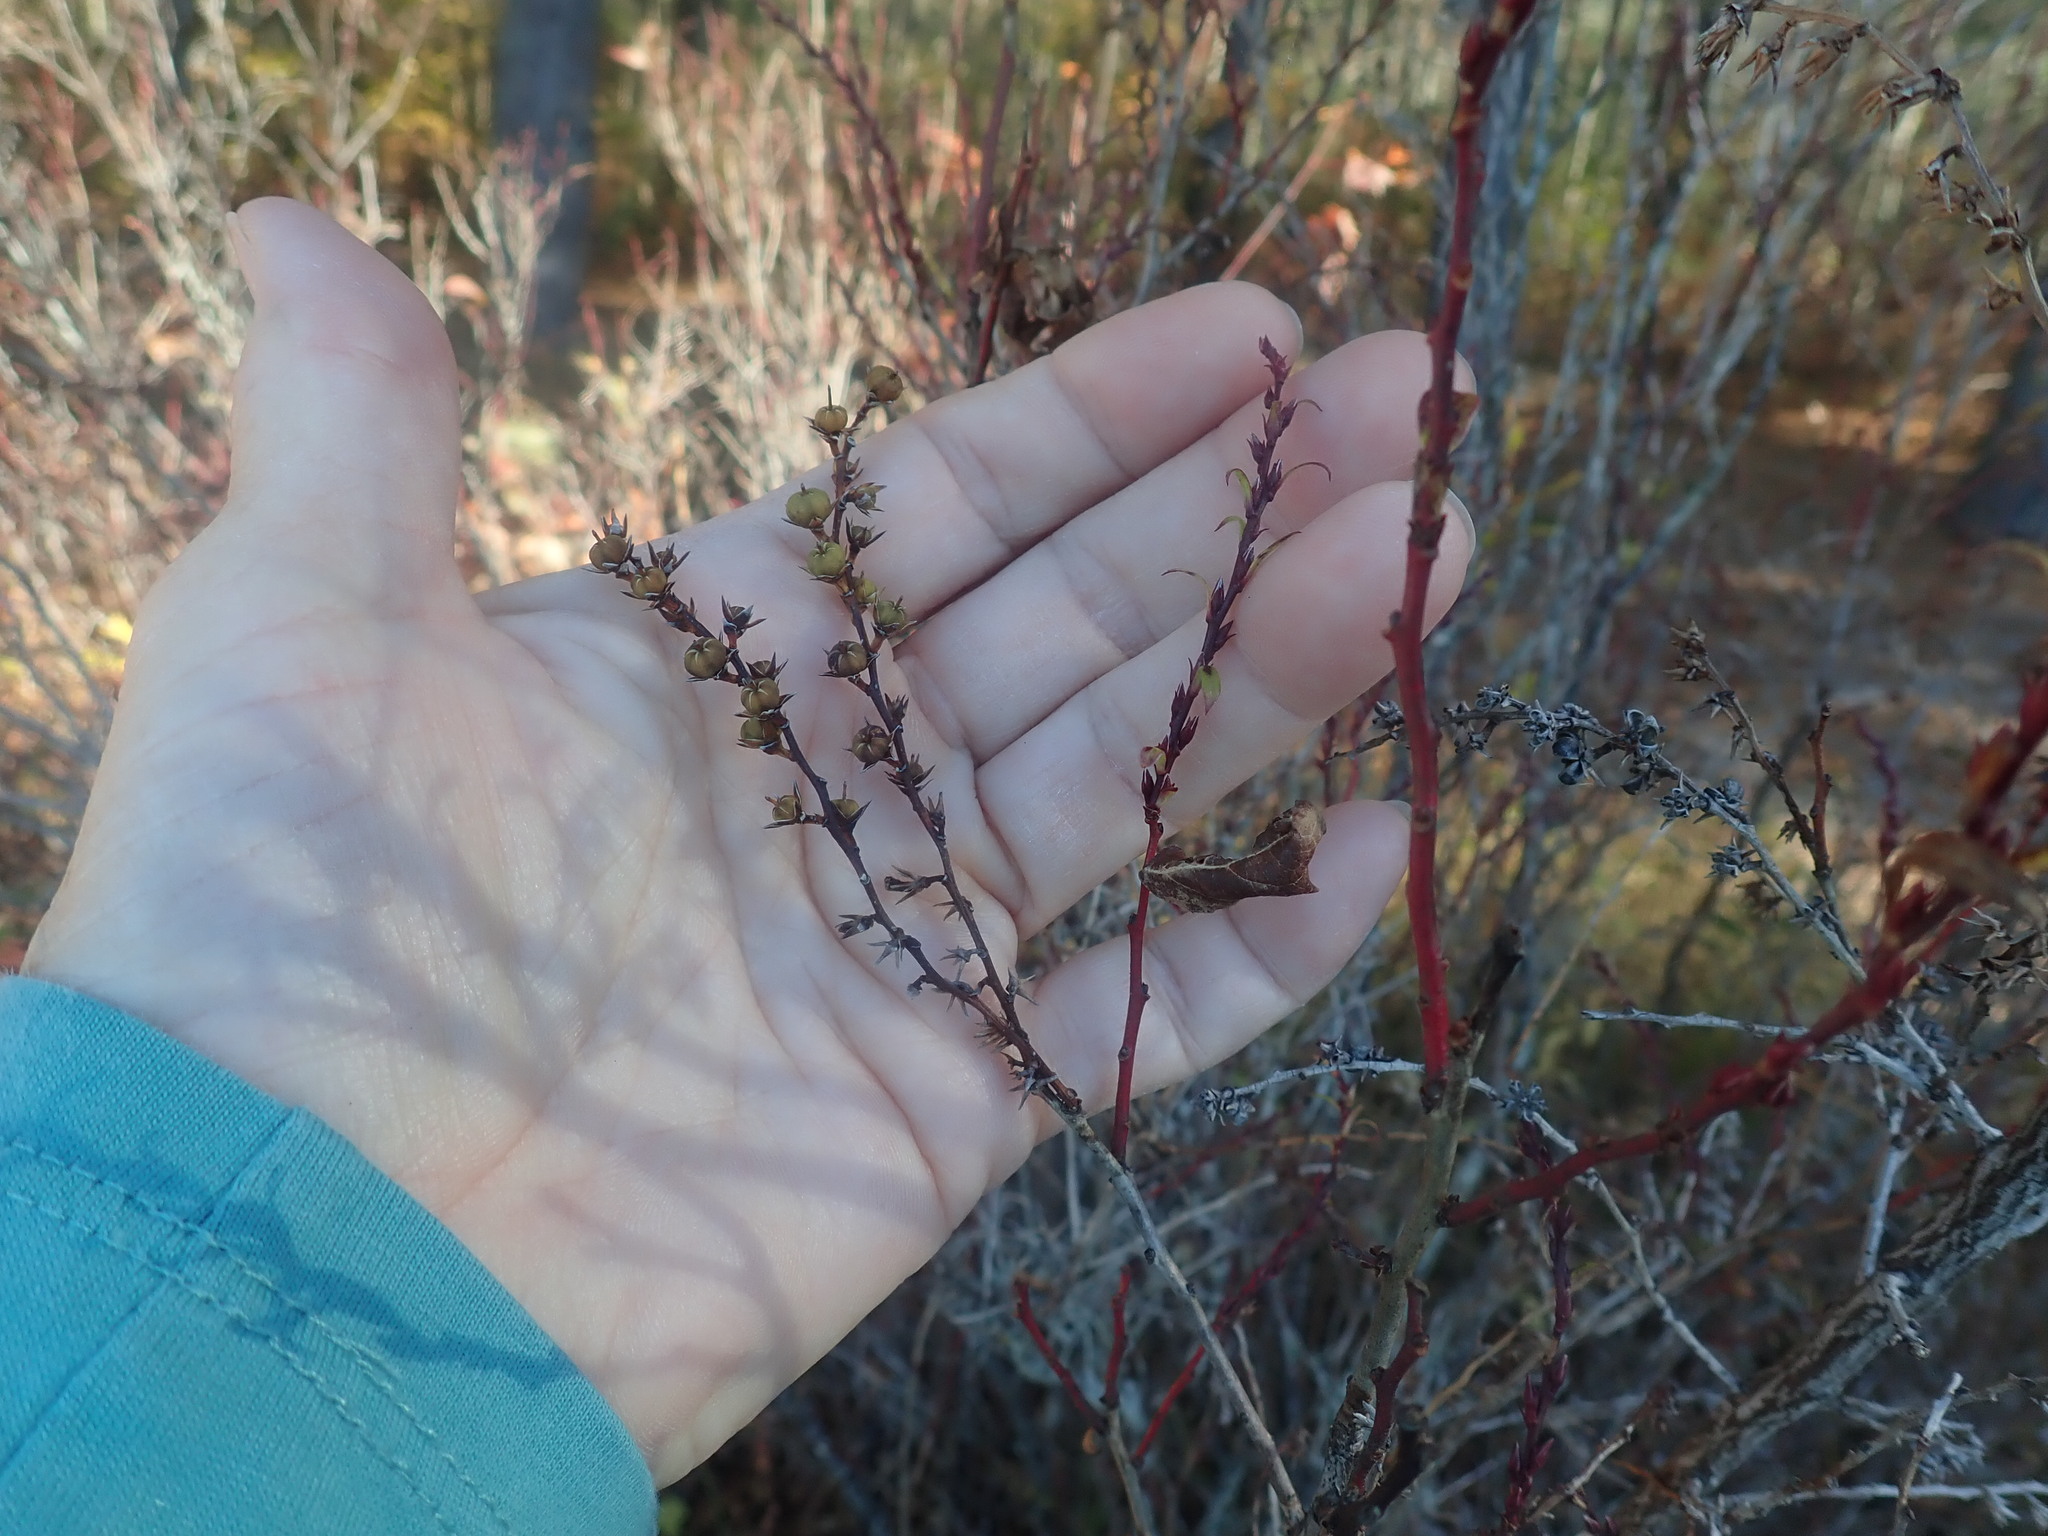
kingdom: Plantae
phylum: Tracheophyta
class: Magnoliopsida
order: Ericales
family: Ericaceae
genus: Eubotrys
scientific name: Eubotrys racemosa
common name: Fetterbush
